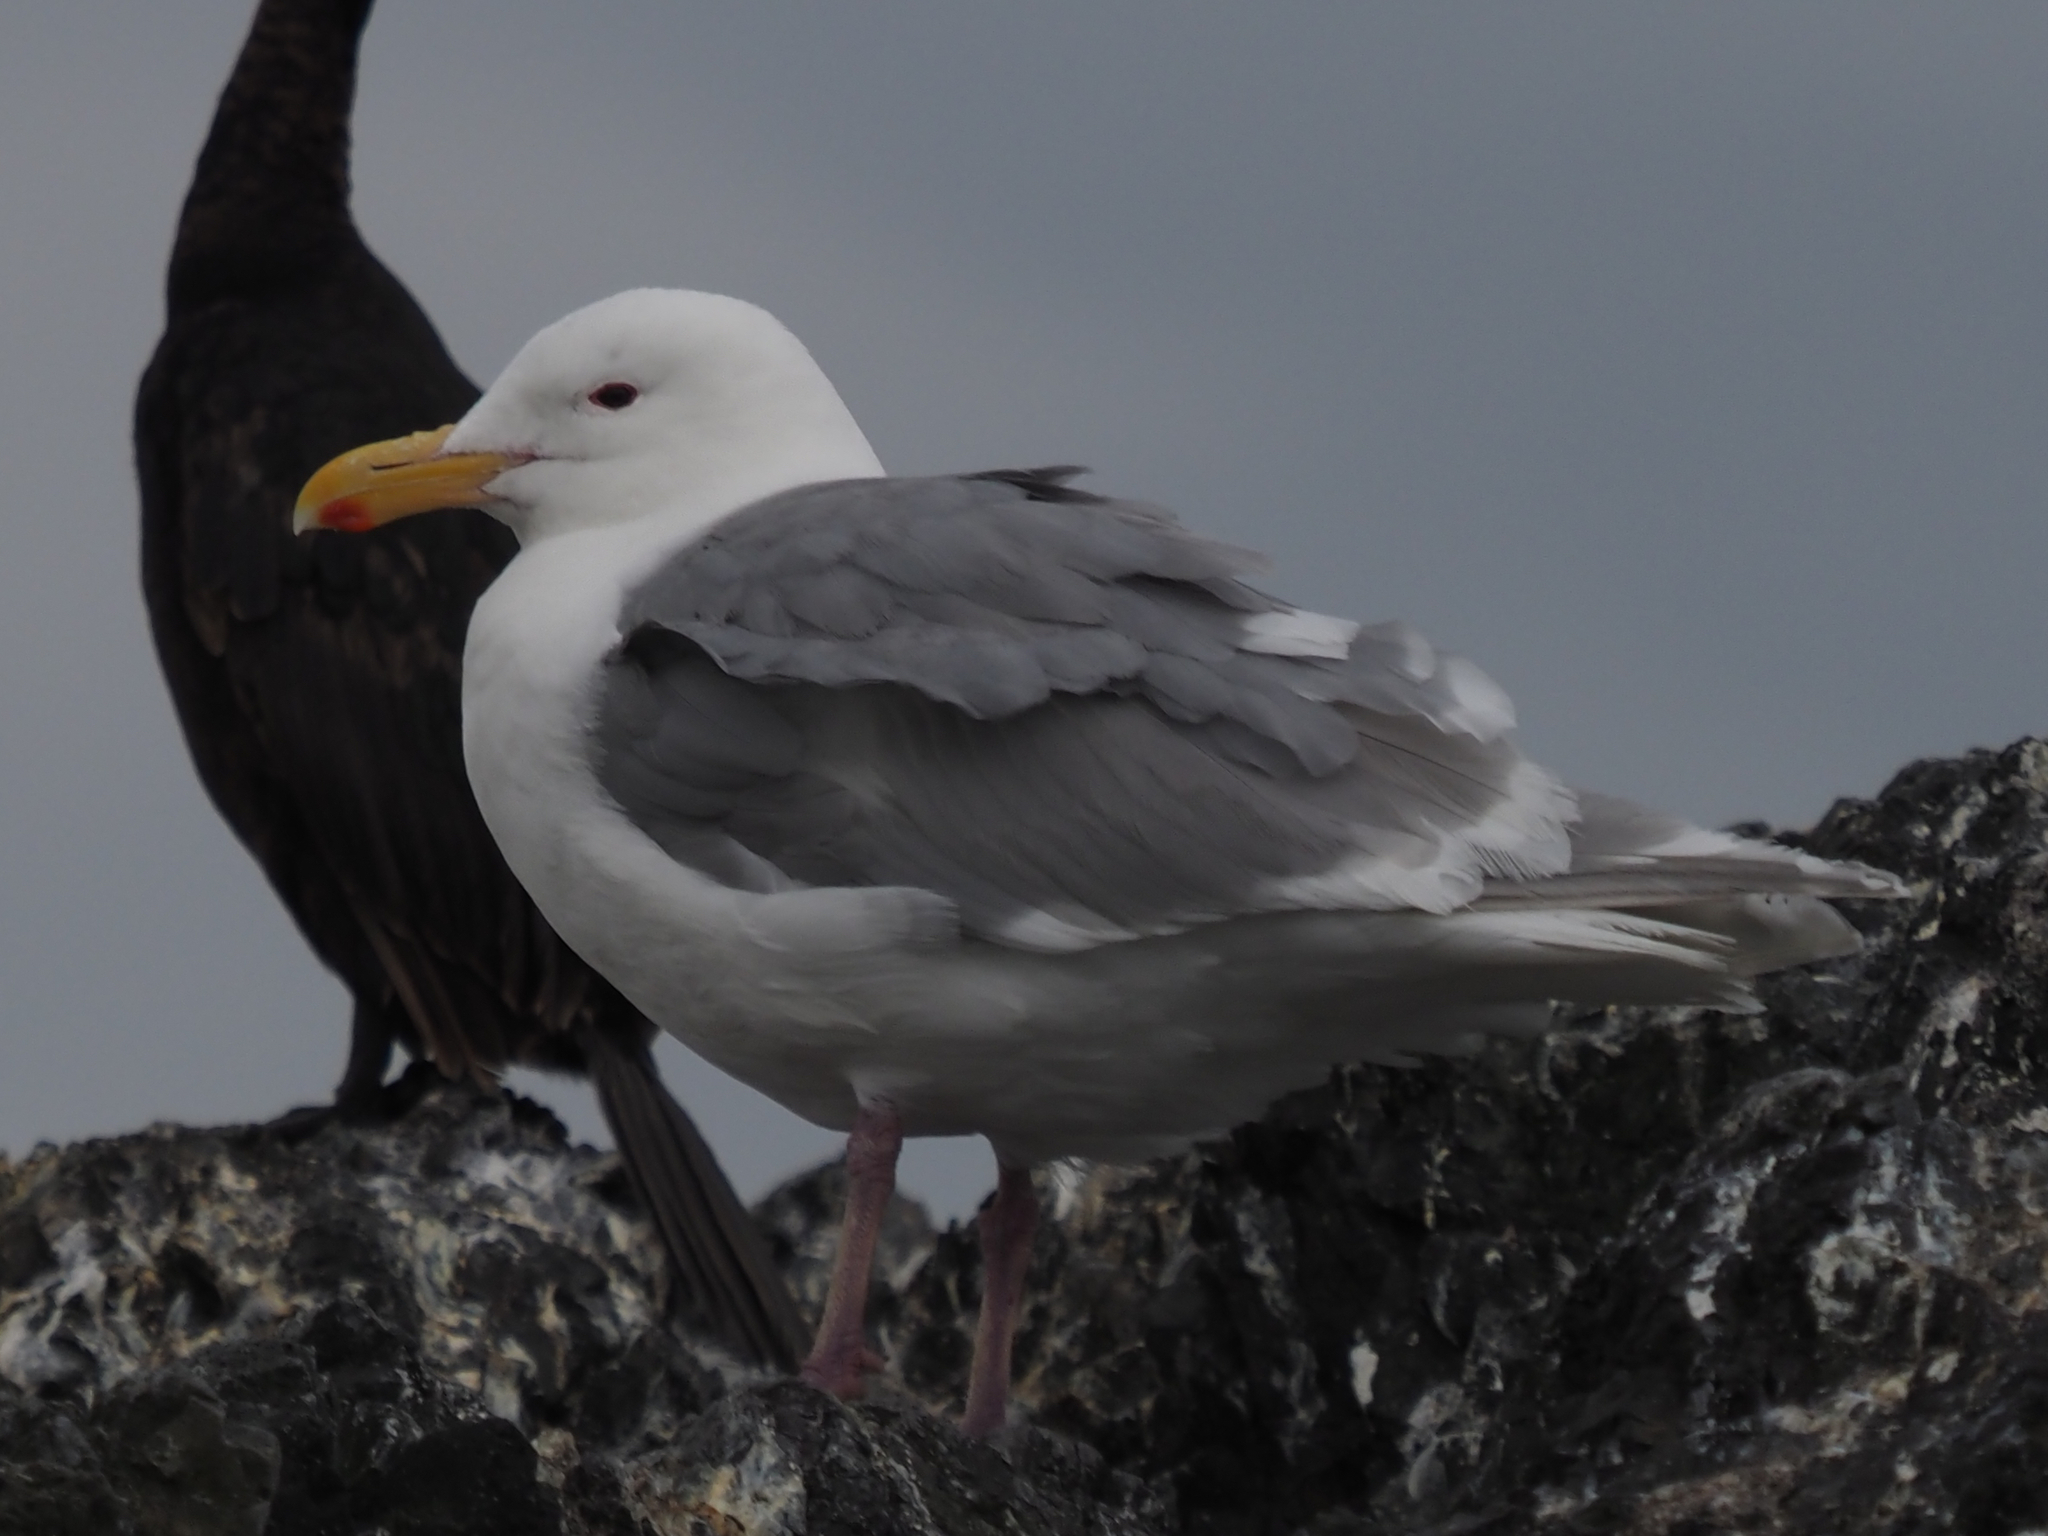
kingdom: Animalia
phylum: Chordata
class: Aves
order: Charadriiformes
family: Laridae
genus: Larus
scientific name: Larus glaucescens
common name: Glaucous-winged gull
